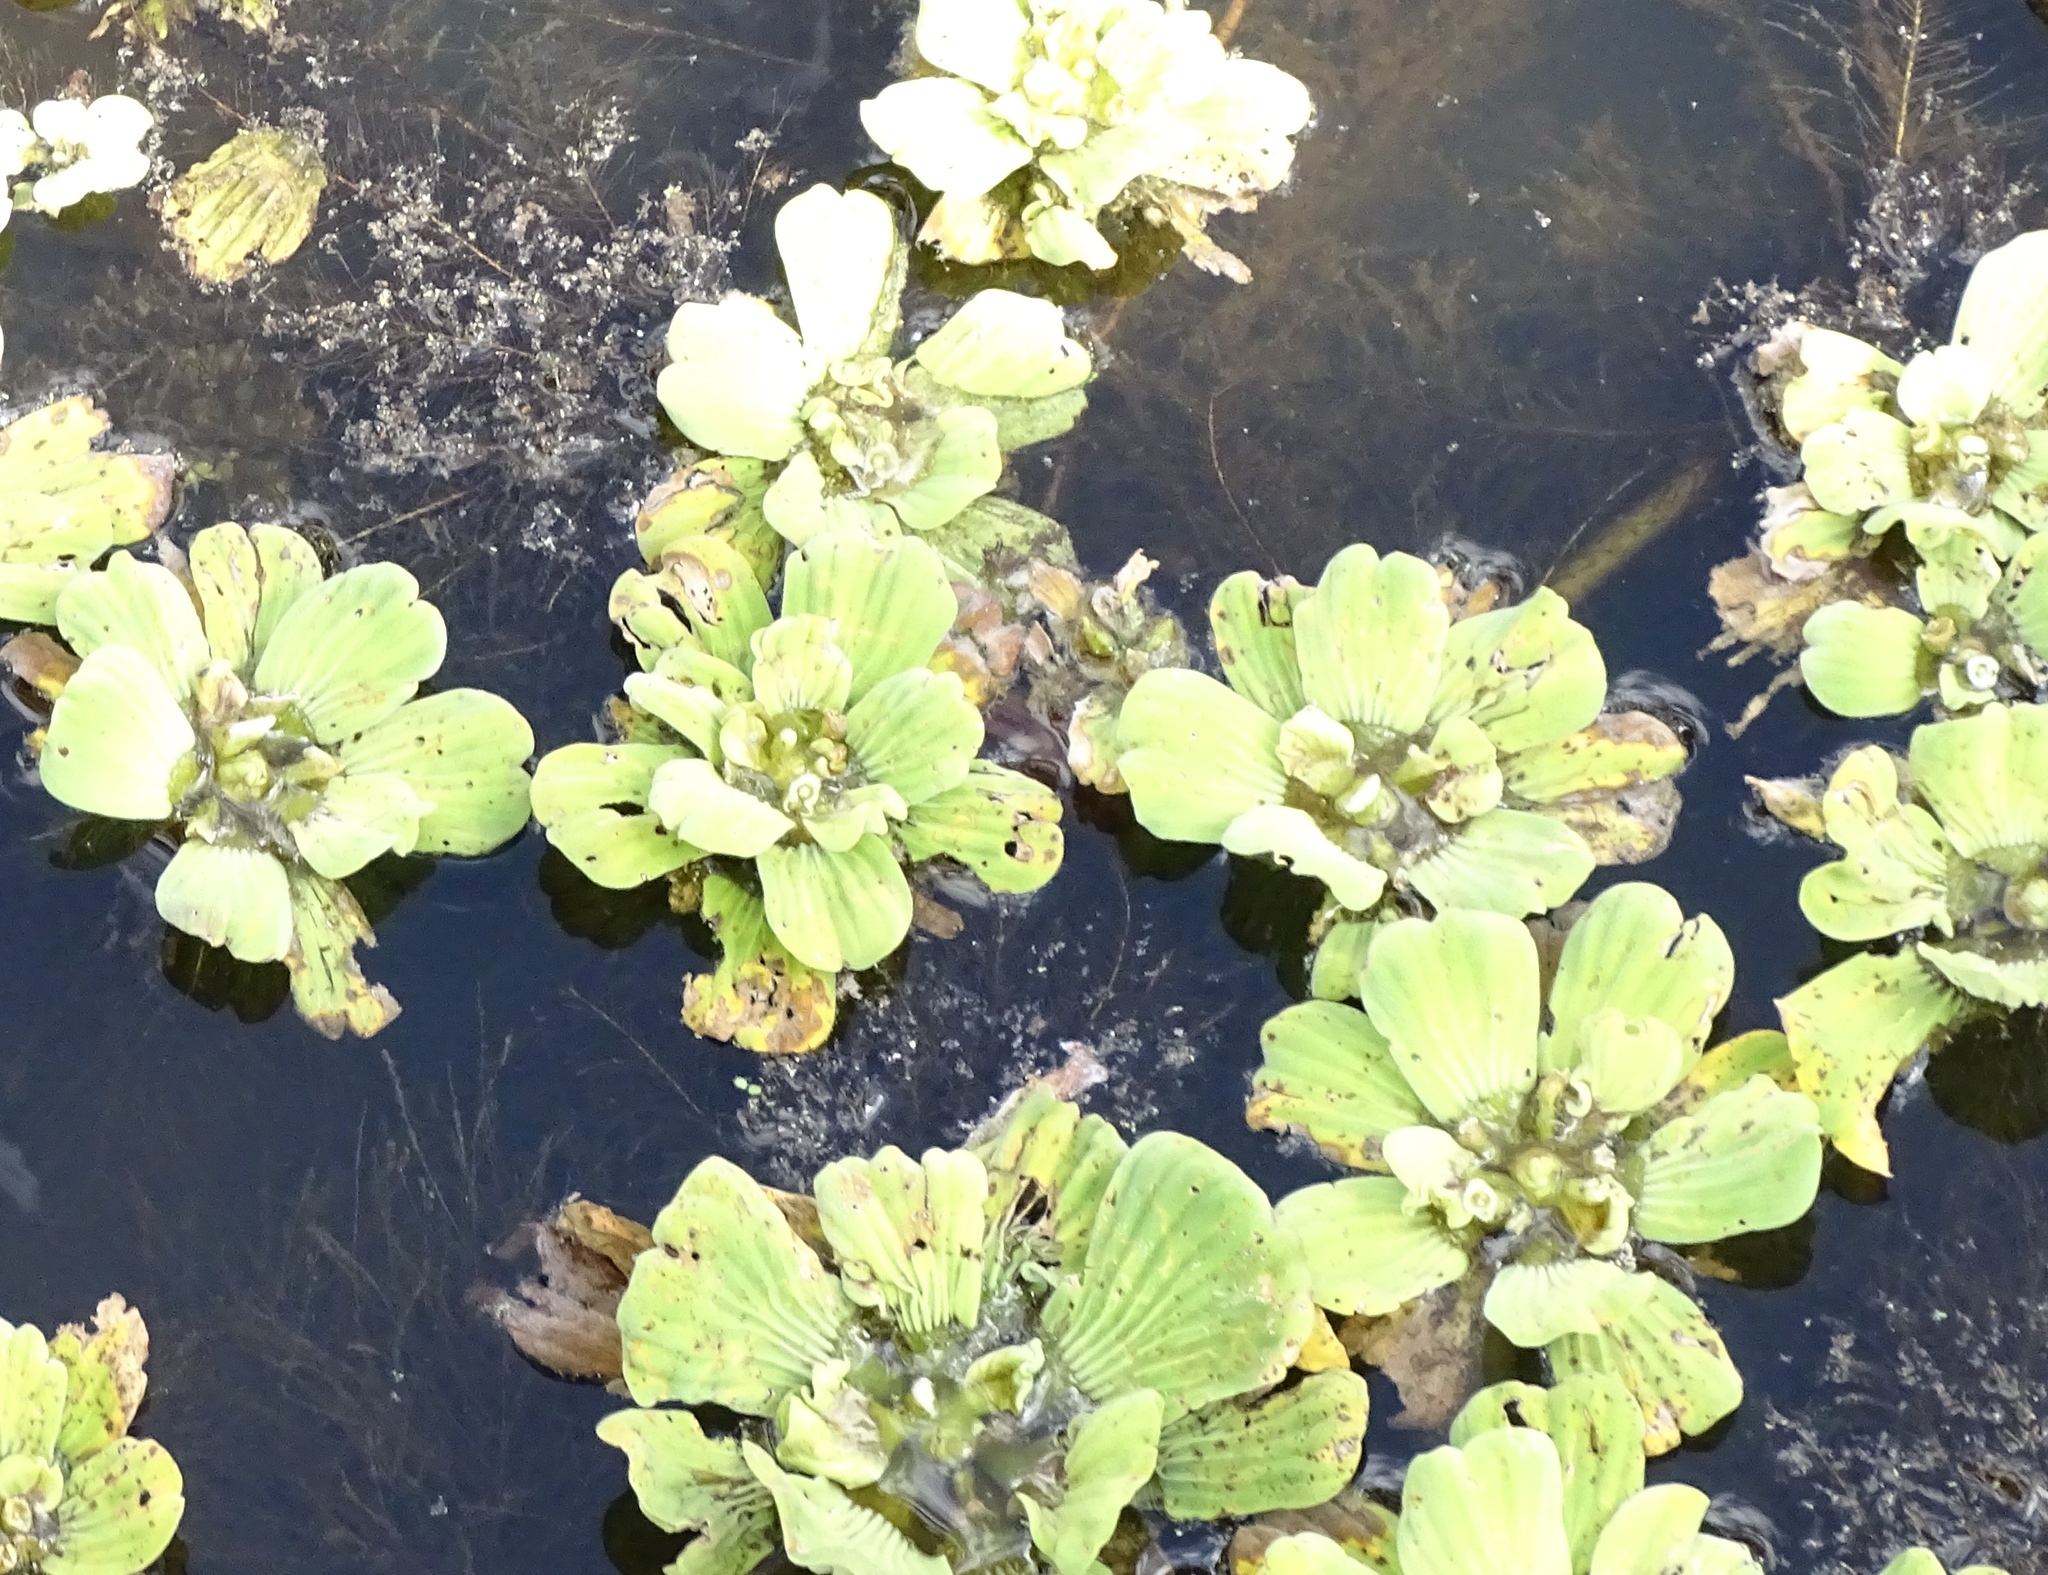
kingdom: Plantae
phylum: Tracheophyta
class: Liliopsida
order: Alismatales
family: Araceae
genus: Pistia
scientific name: Pistia stratiotes
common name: Water lettuce
